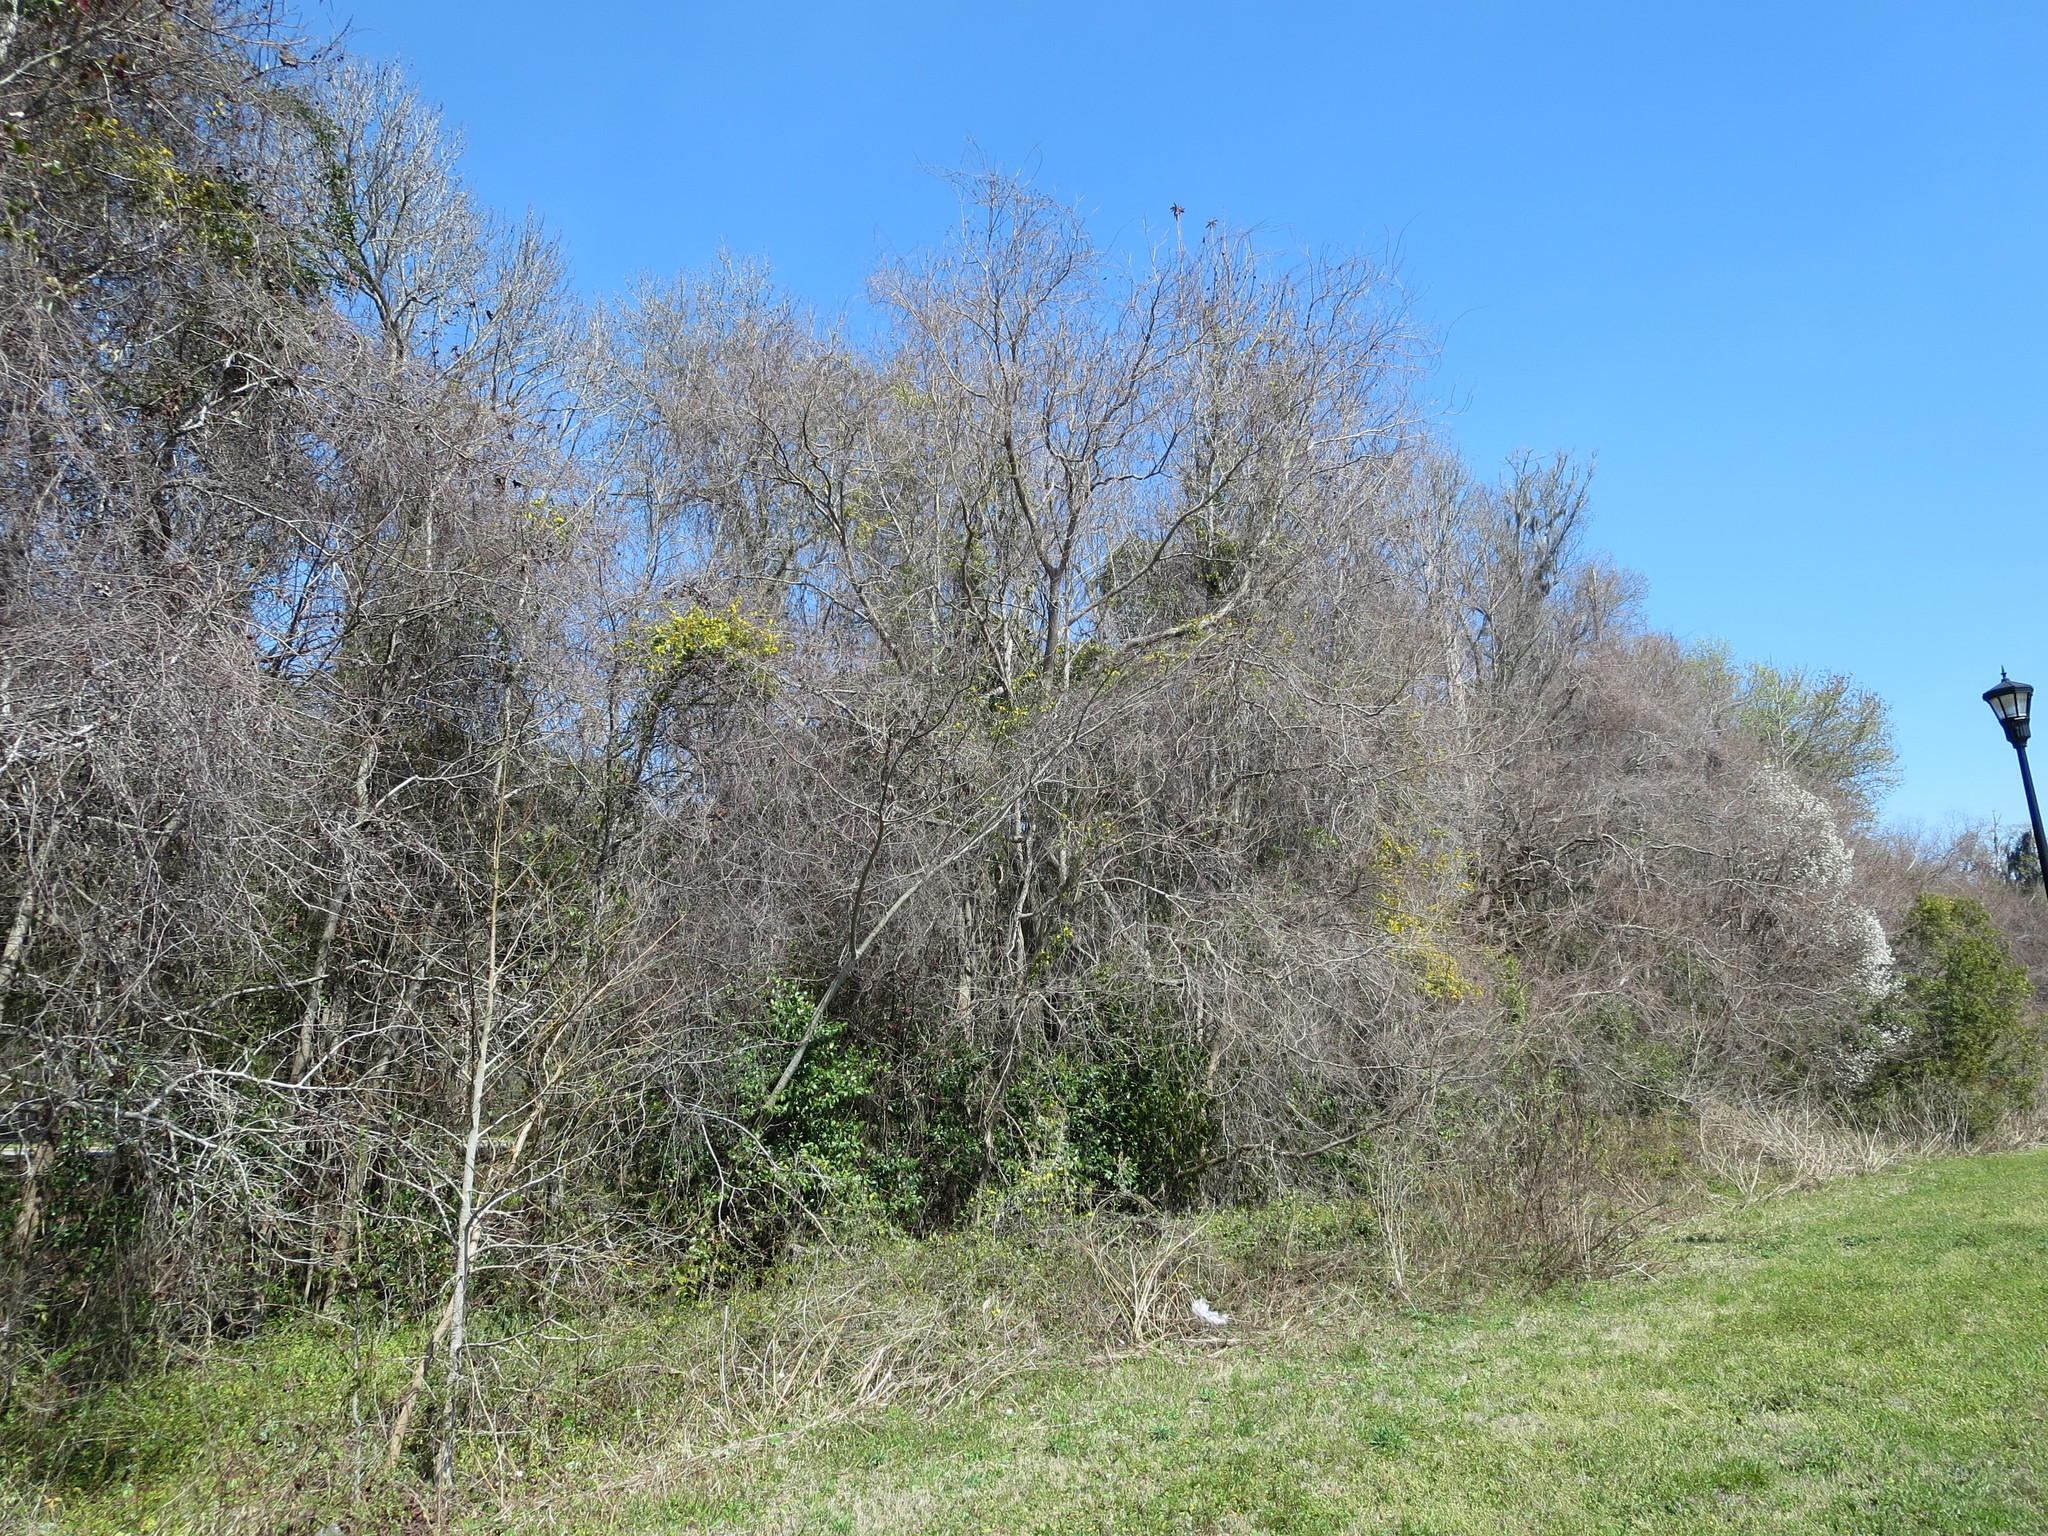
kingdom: Plantae
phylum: Tracheophyta
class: Magnoliopsida
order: Gentianales
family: Gelsemiaceae
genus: Gelsemium
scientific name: Gelsemium sempervirens
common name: Carolina-jasmine
